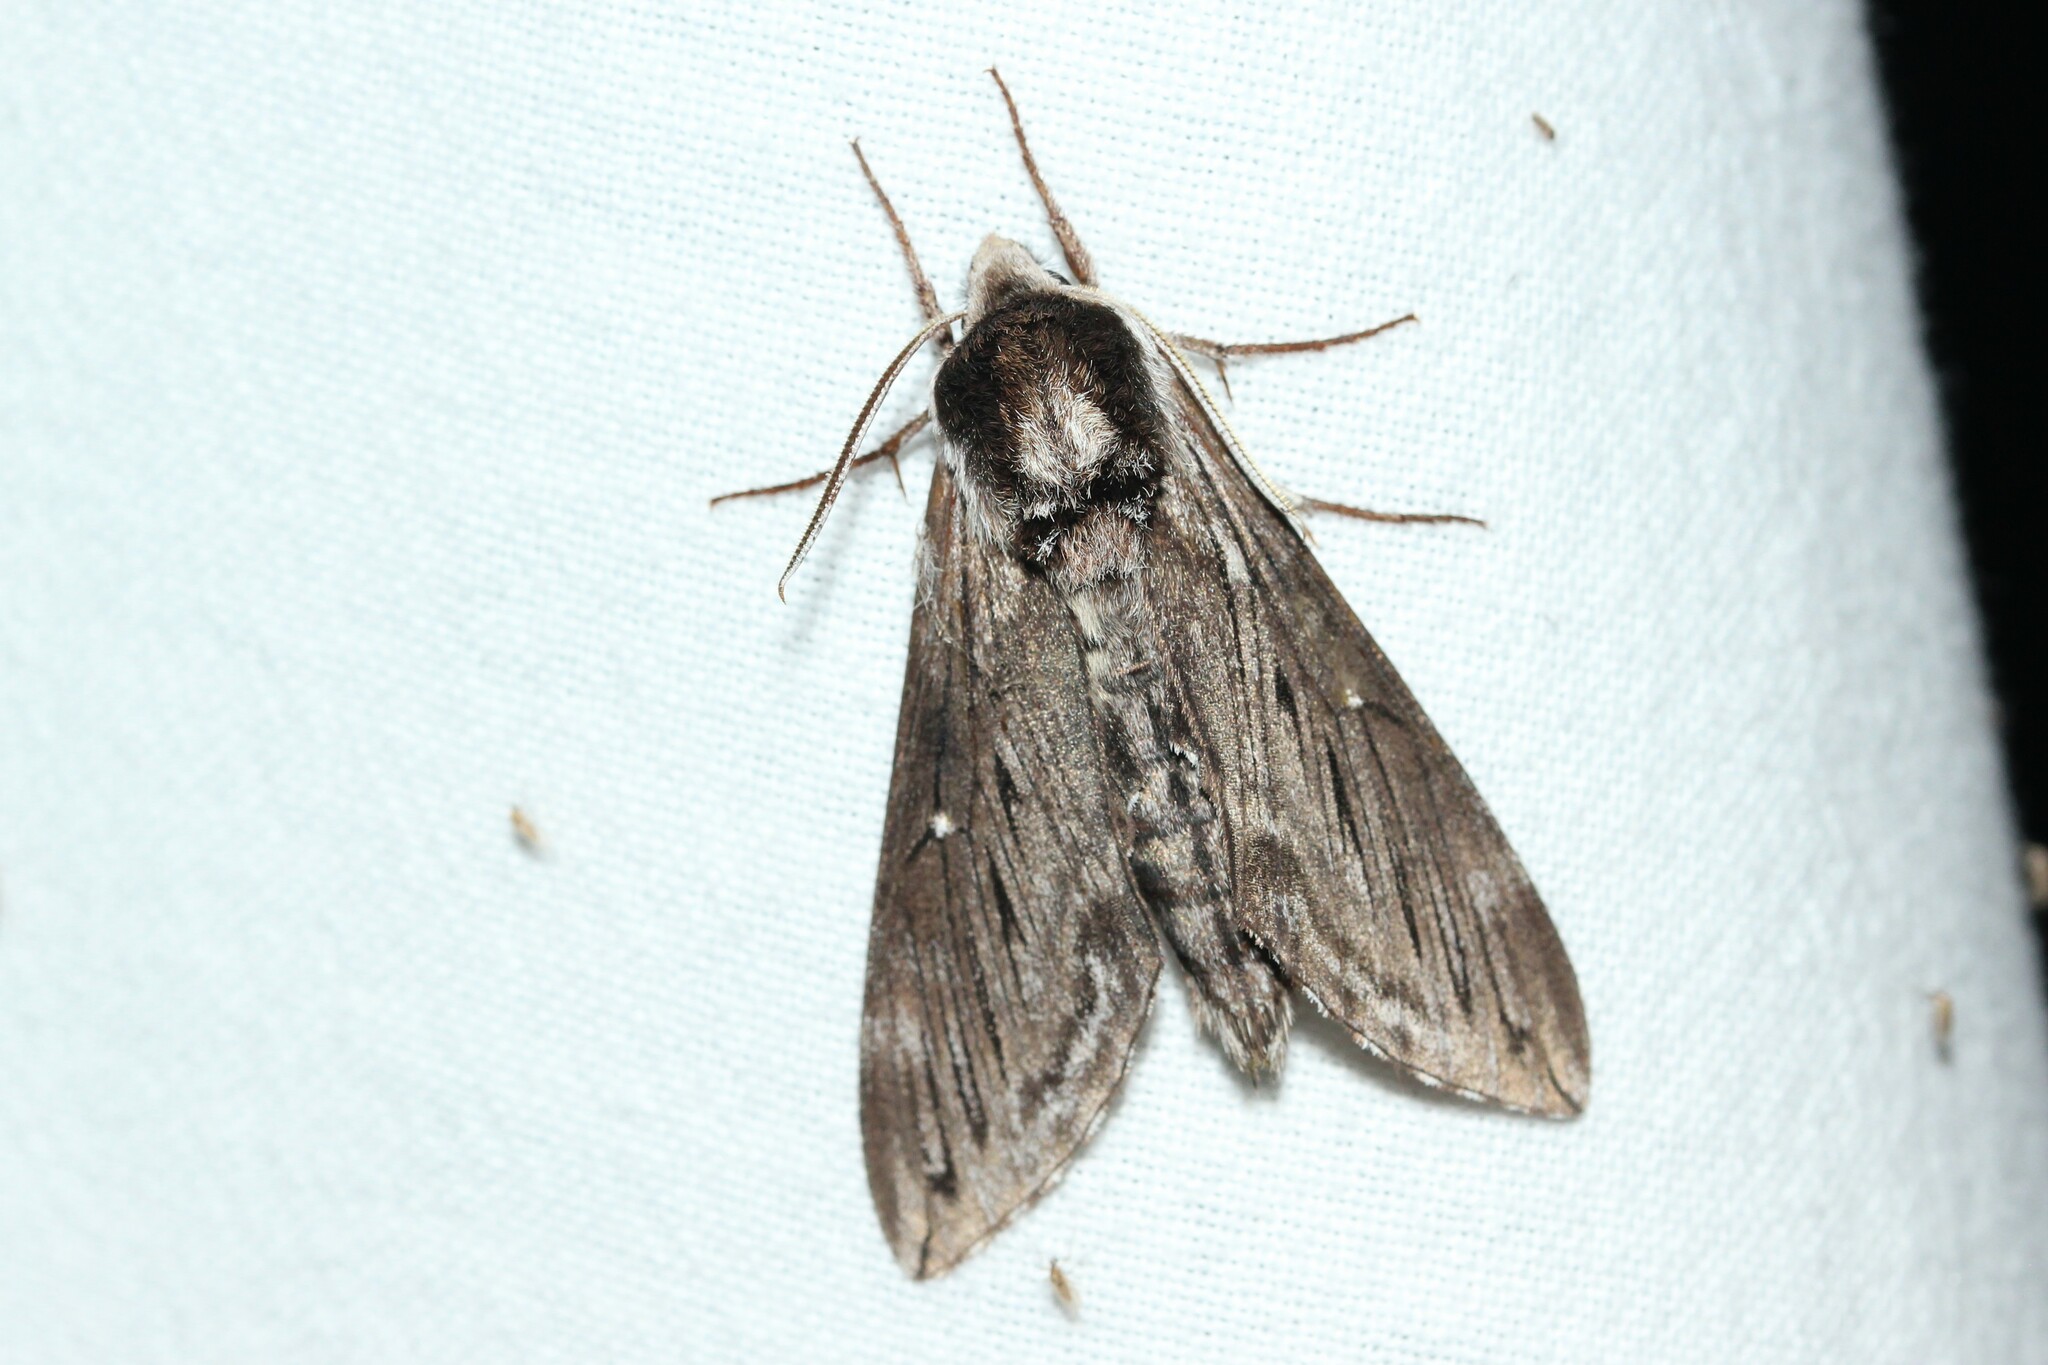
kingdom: Animalia
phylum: Arthropoda
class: Insecta
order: Lepidoptera
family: Sphingidae
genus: Sphinx
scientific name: Sphinx poecila
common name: Northern apple sphinx
